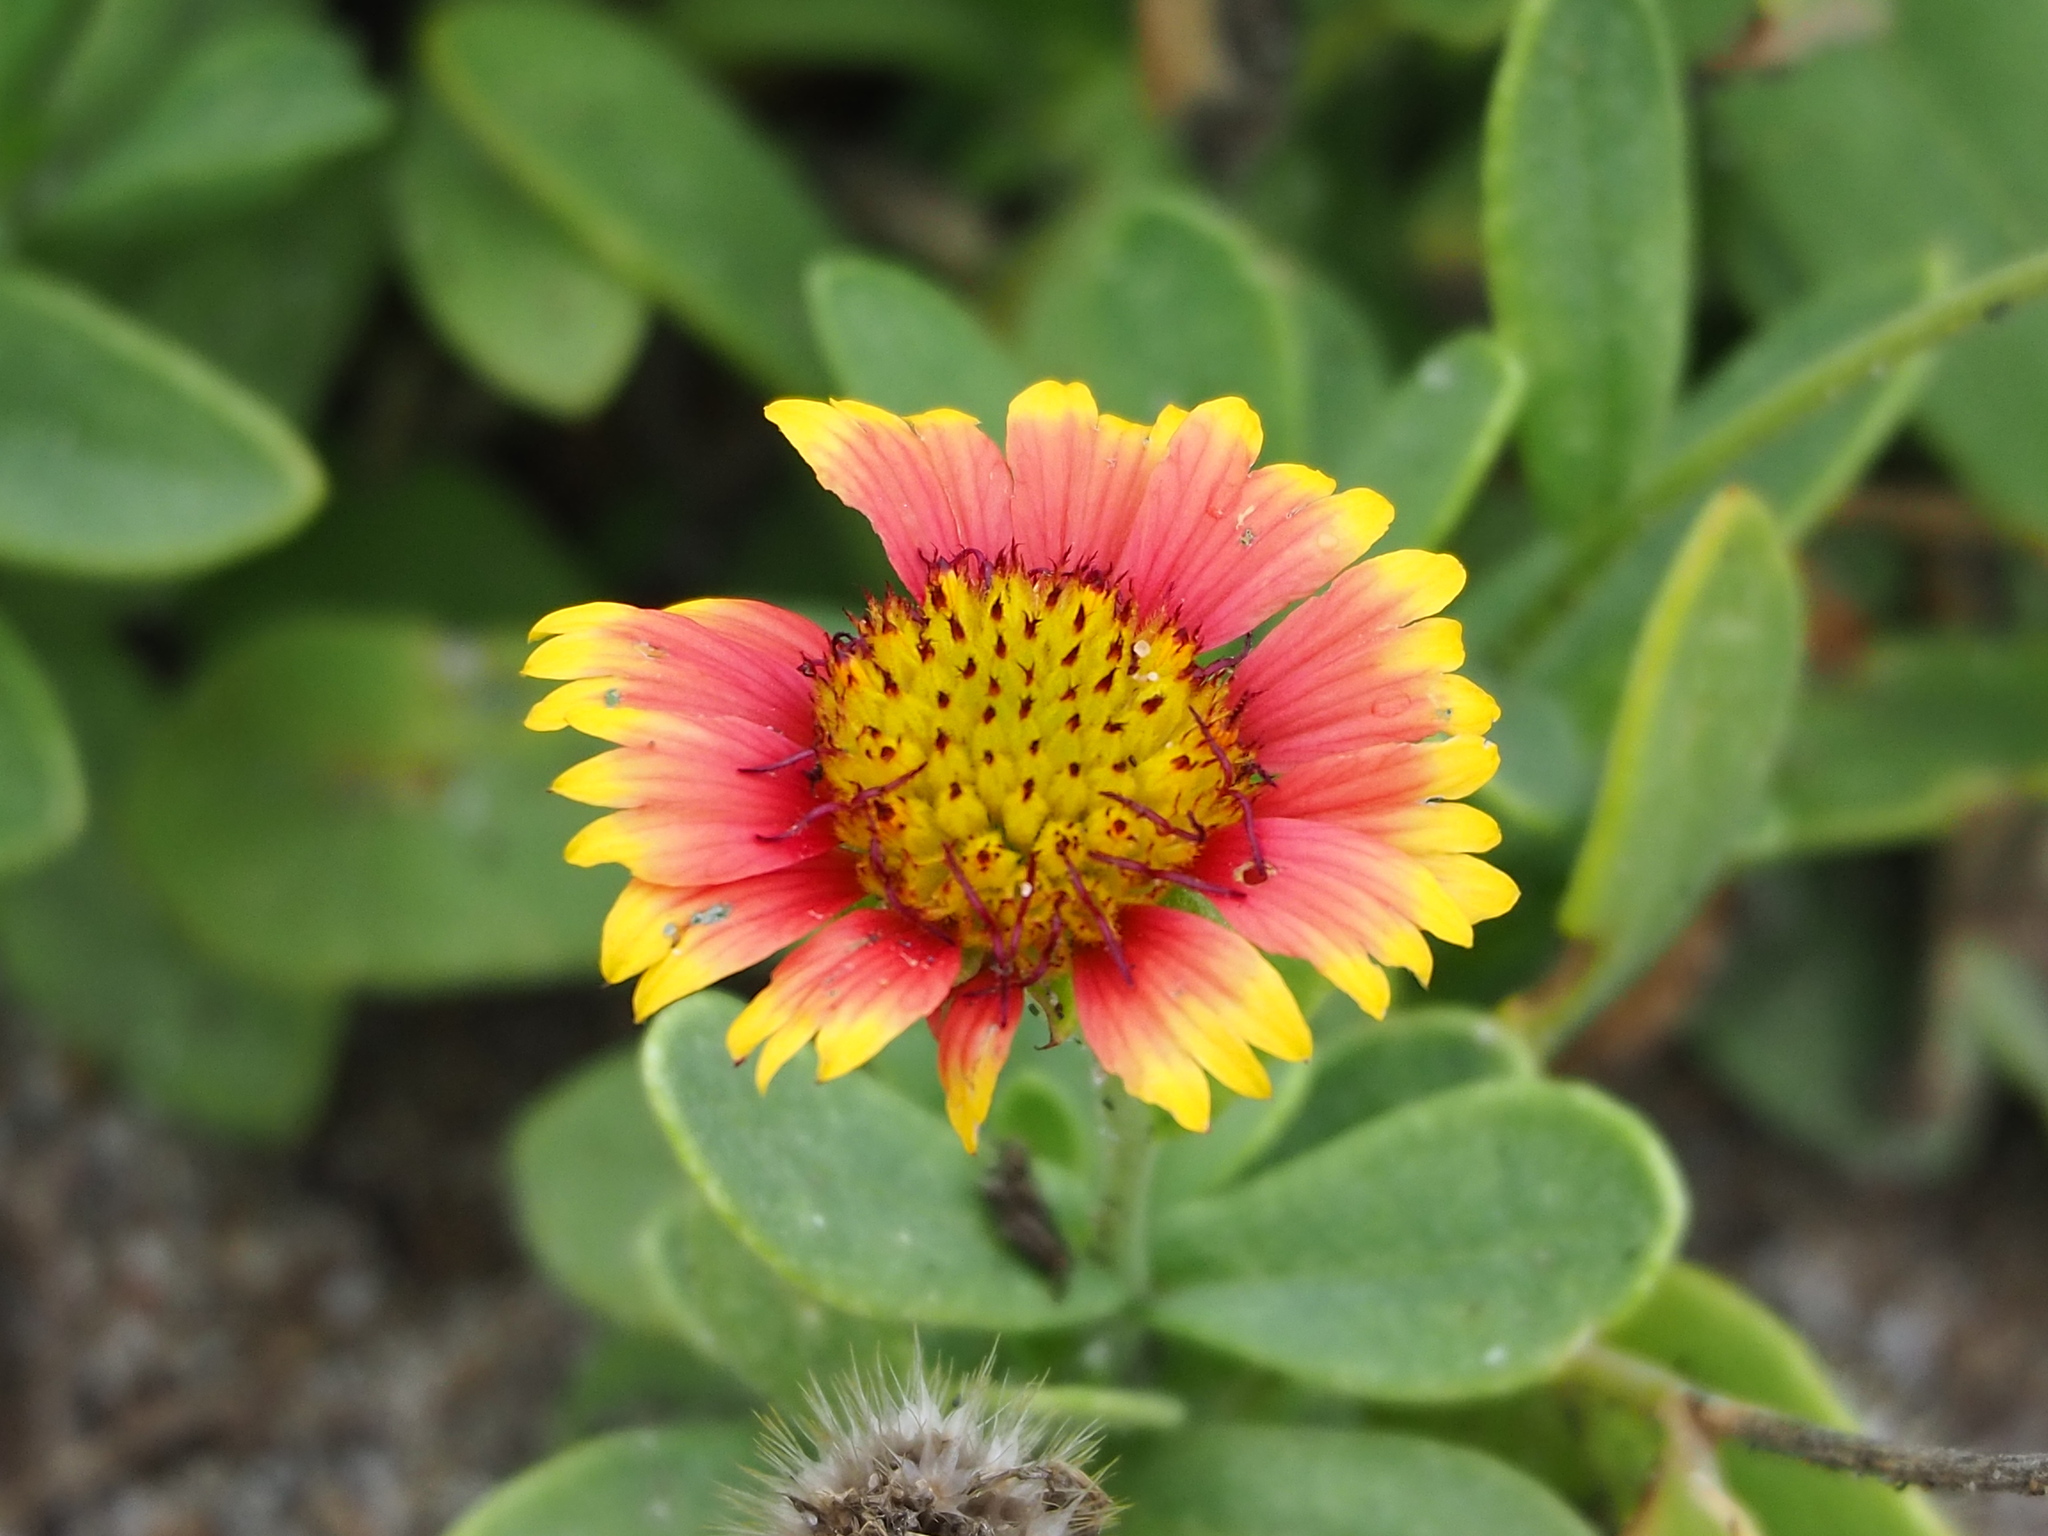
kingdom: Plantae
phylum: Tracheophyta
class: Magnoliopsida
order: Asterales
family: Asteraceae
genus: Gaillardia
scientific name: Gaillardia pulchella
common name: Firewheel
